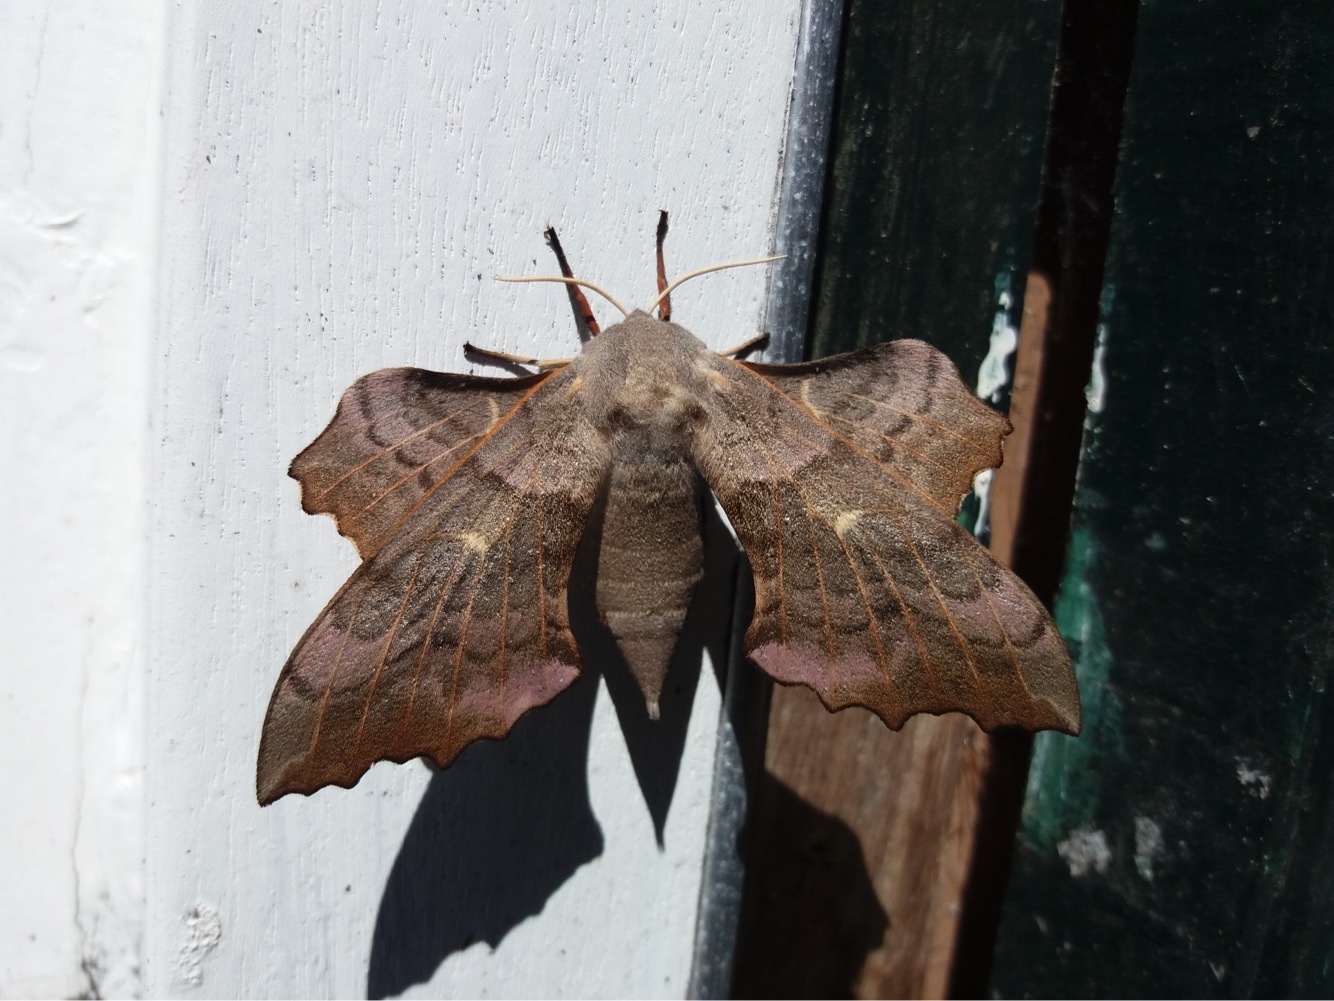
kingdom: Animalia
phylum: Arthropoda
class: Insecta
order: Lepidoptera
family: Sphingidae
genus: Laothoe
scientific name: Laothoe populi
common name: Poplar hawk-moth
